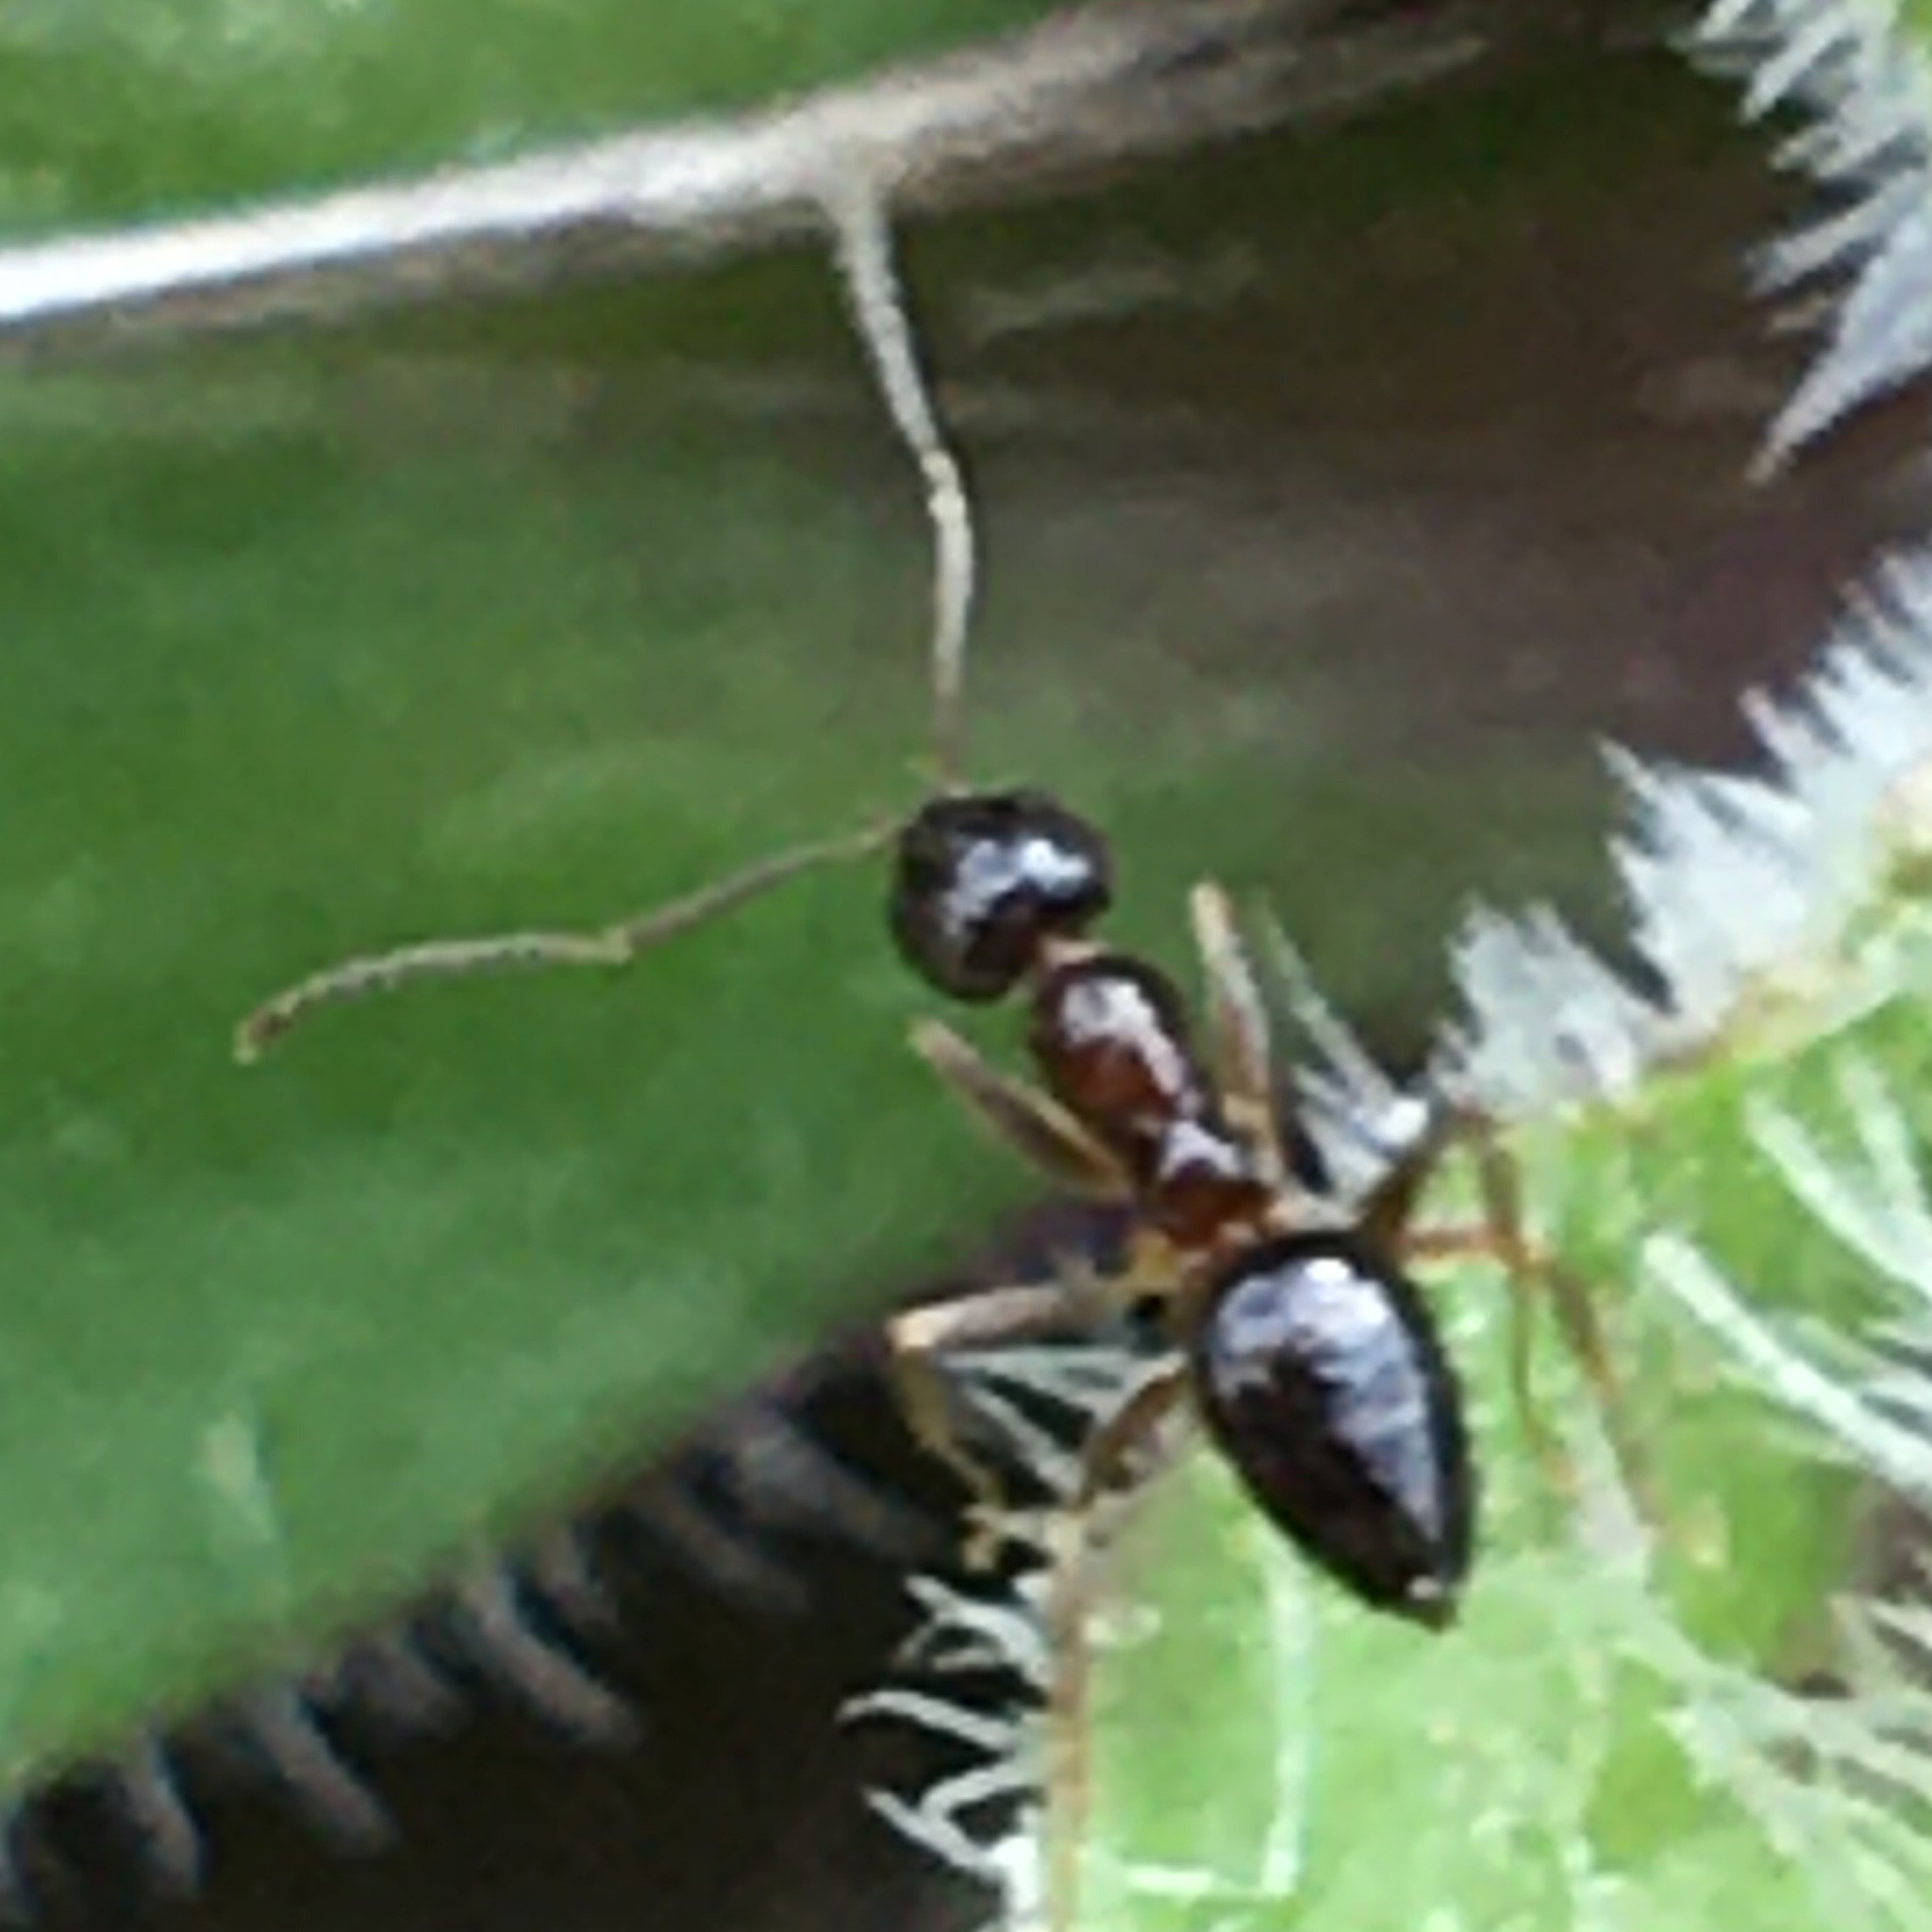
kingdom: Animalia
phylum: Arthropoda
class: Insecta
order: Hymenoptera
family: Formicidae
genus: Nylanderia
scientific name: Nylanderia faisonensis
